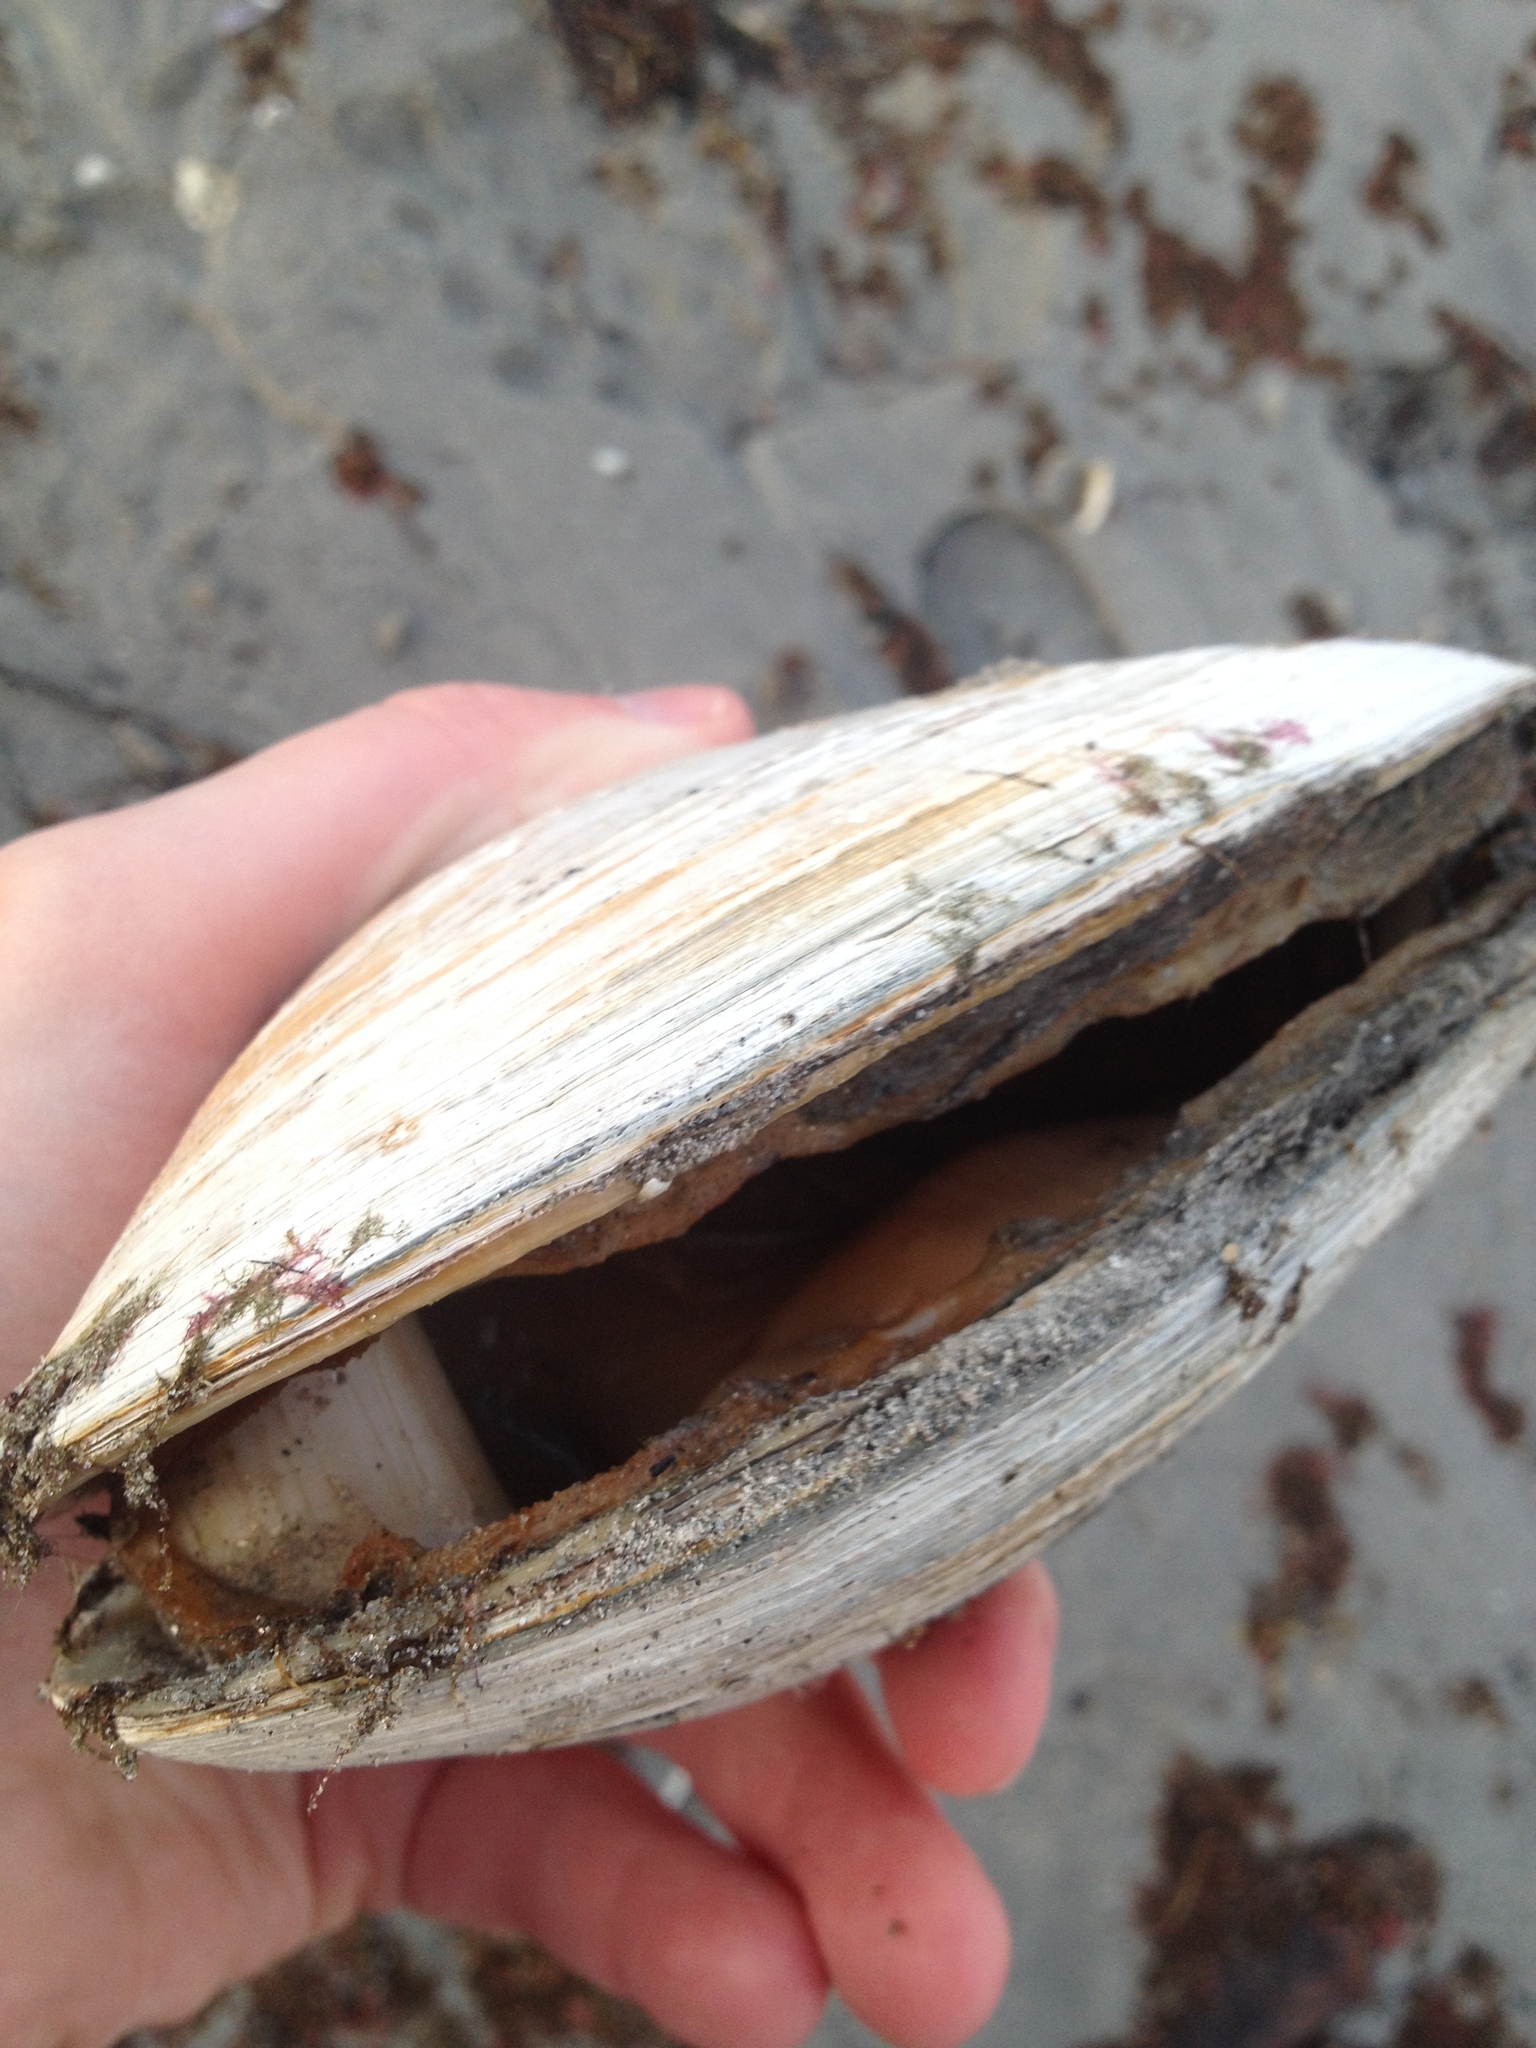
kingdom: Animalia
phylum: Mollusca
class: Bivalvia
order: Venerida
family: Mactridae
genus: Spisula
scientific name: Spisula solidissima
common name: Atlantic surf clam
